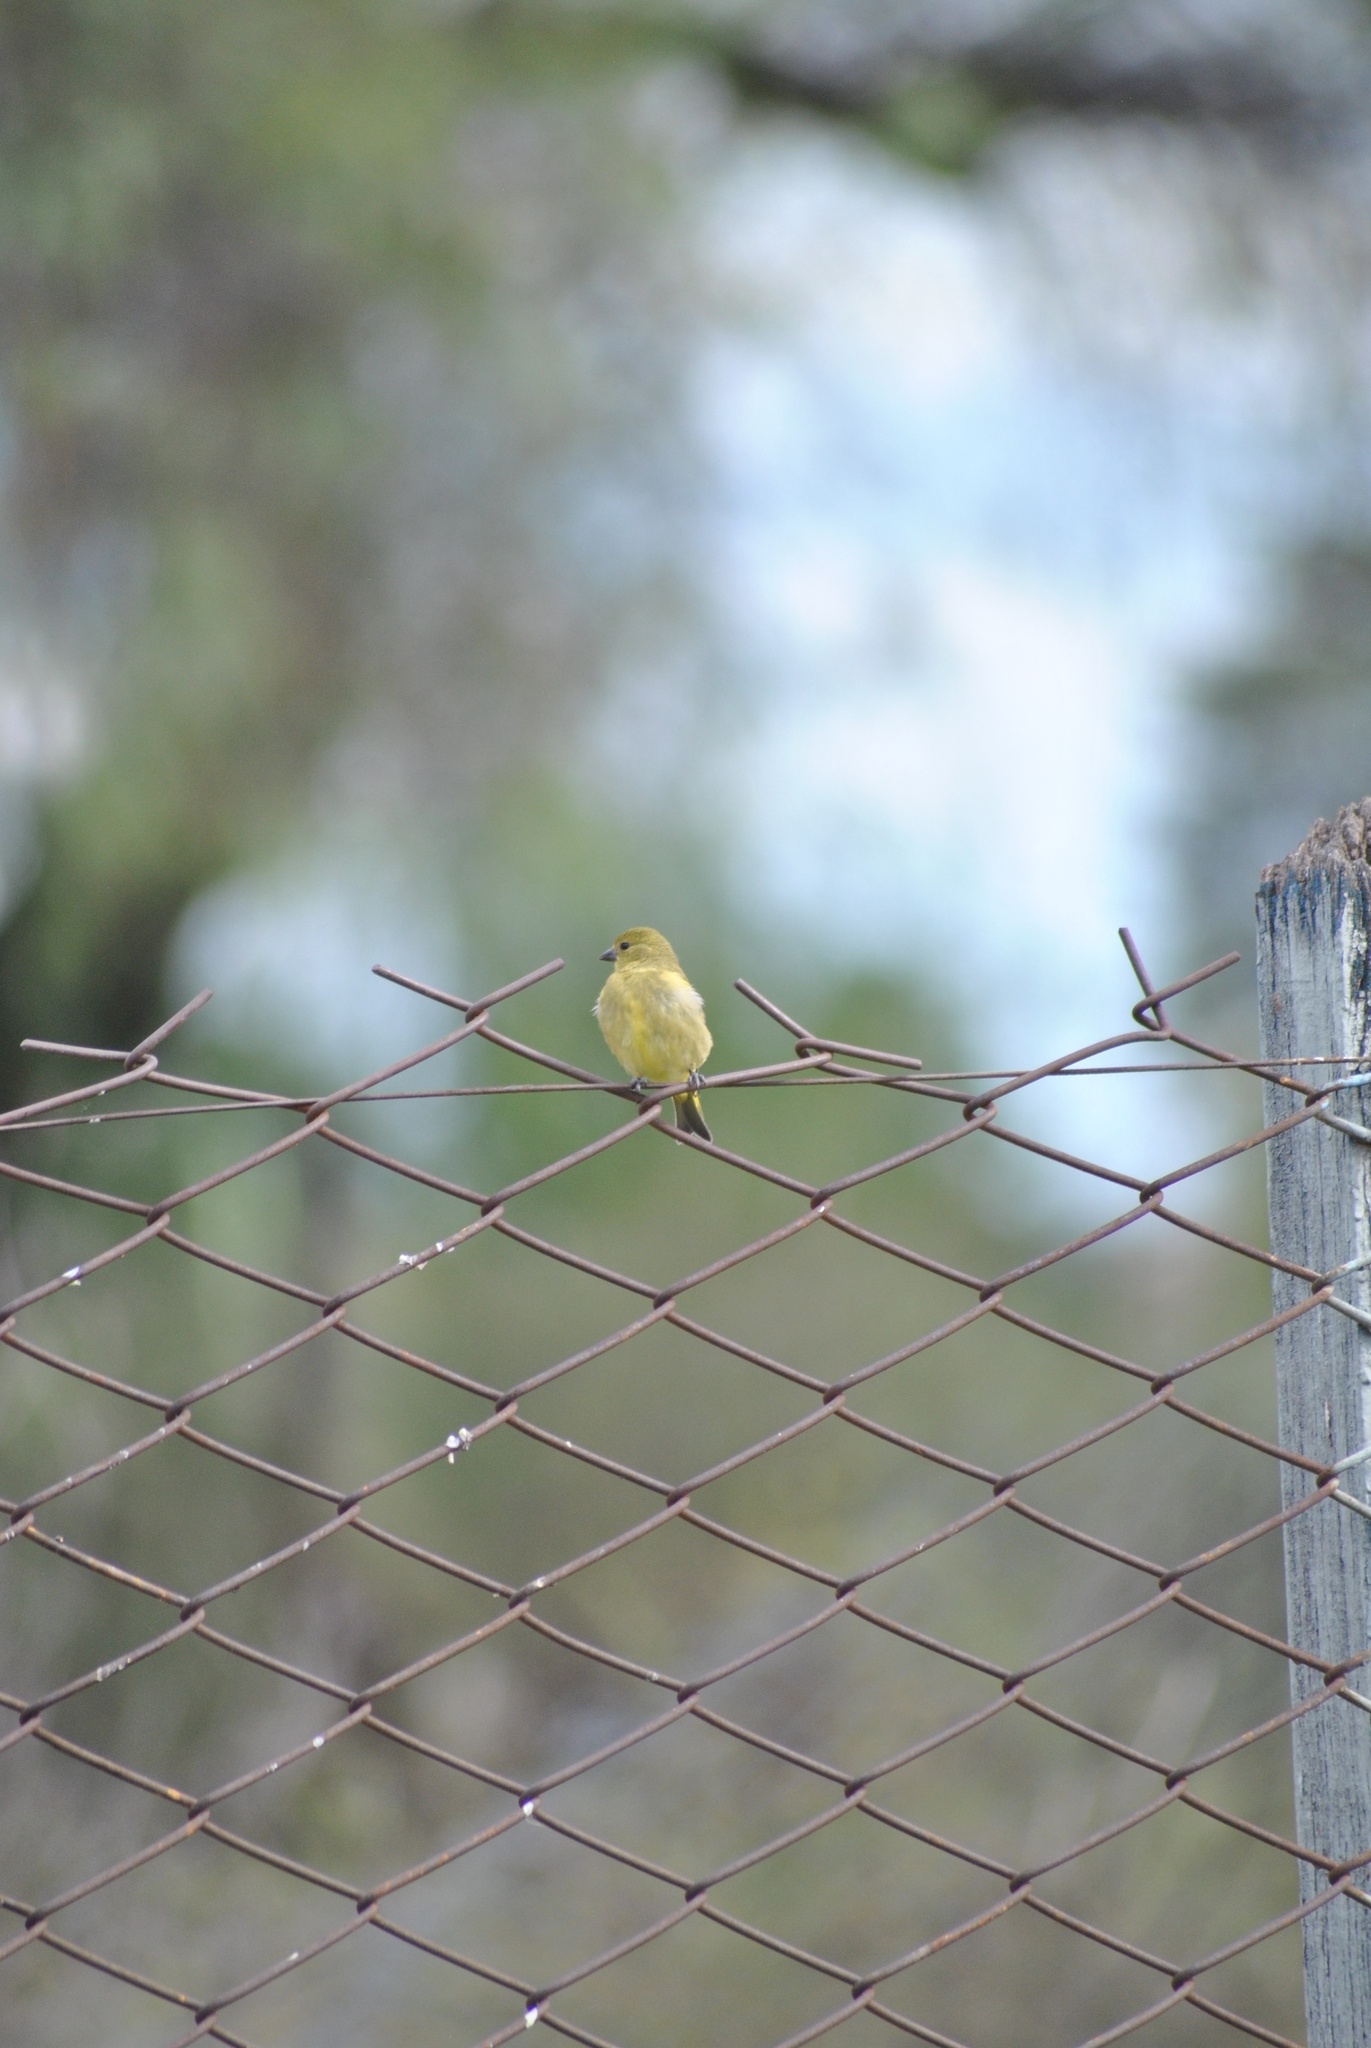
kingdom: Animalia
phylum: Chordata
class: Aves
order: Passeriformes
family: Thraupidae
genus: Sicalis
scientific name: Sicalis luteola
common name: Grassland yellow-finch
